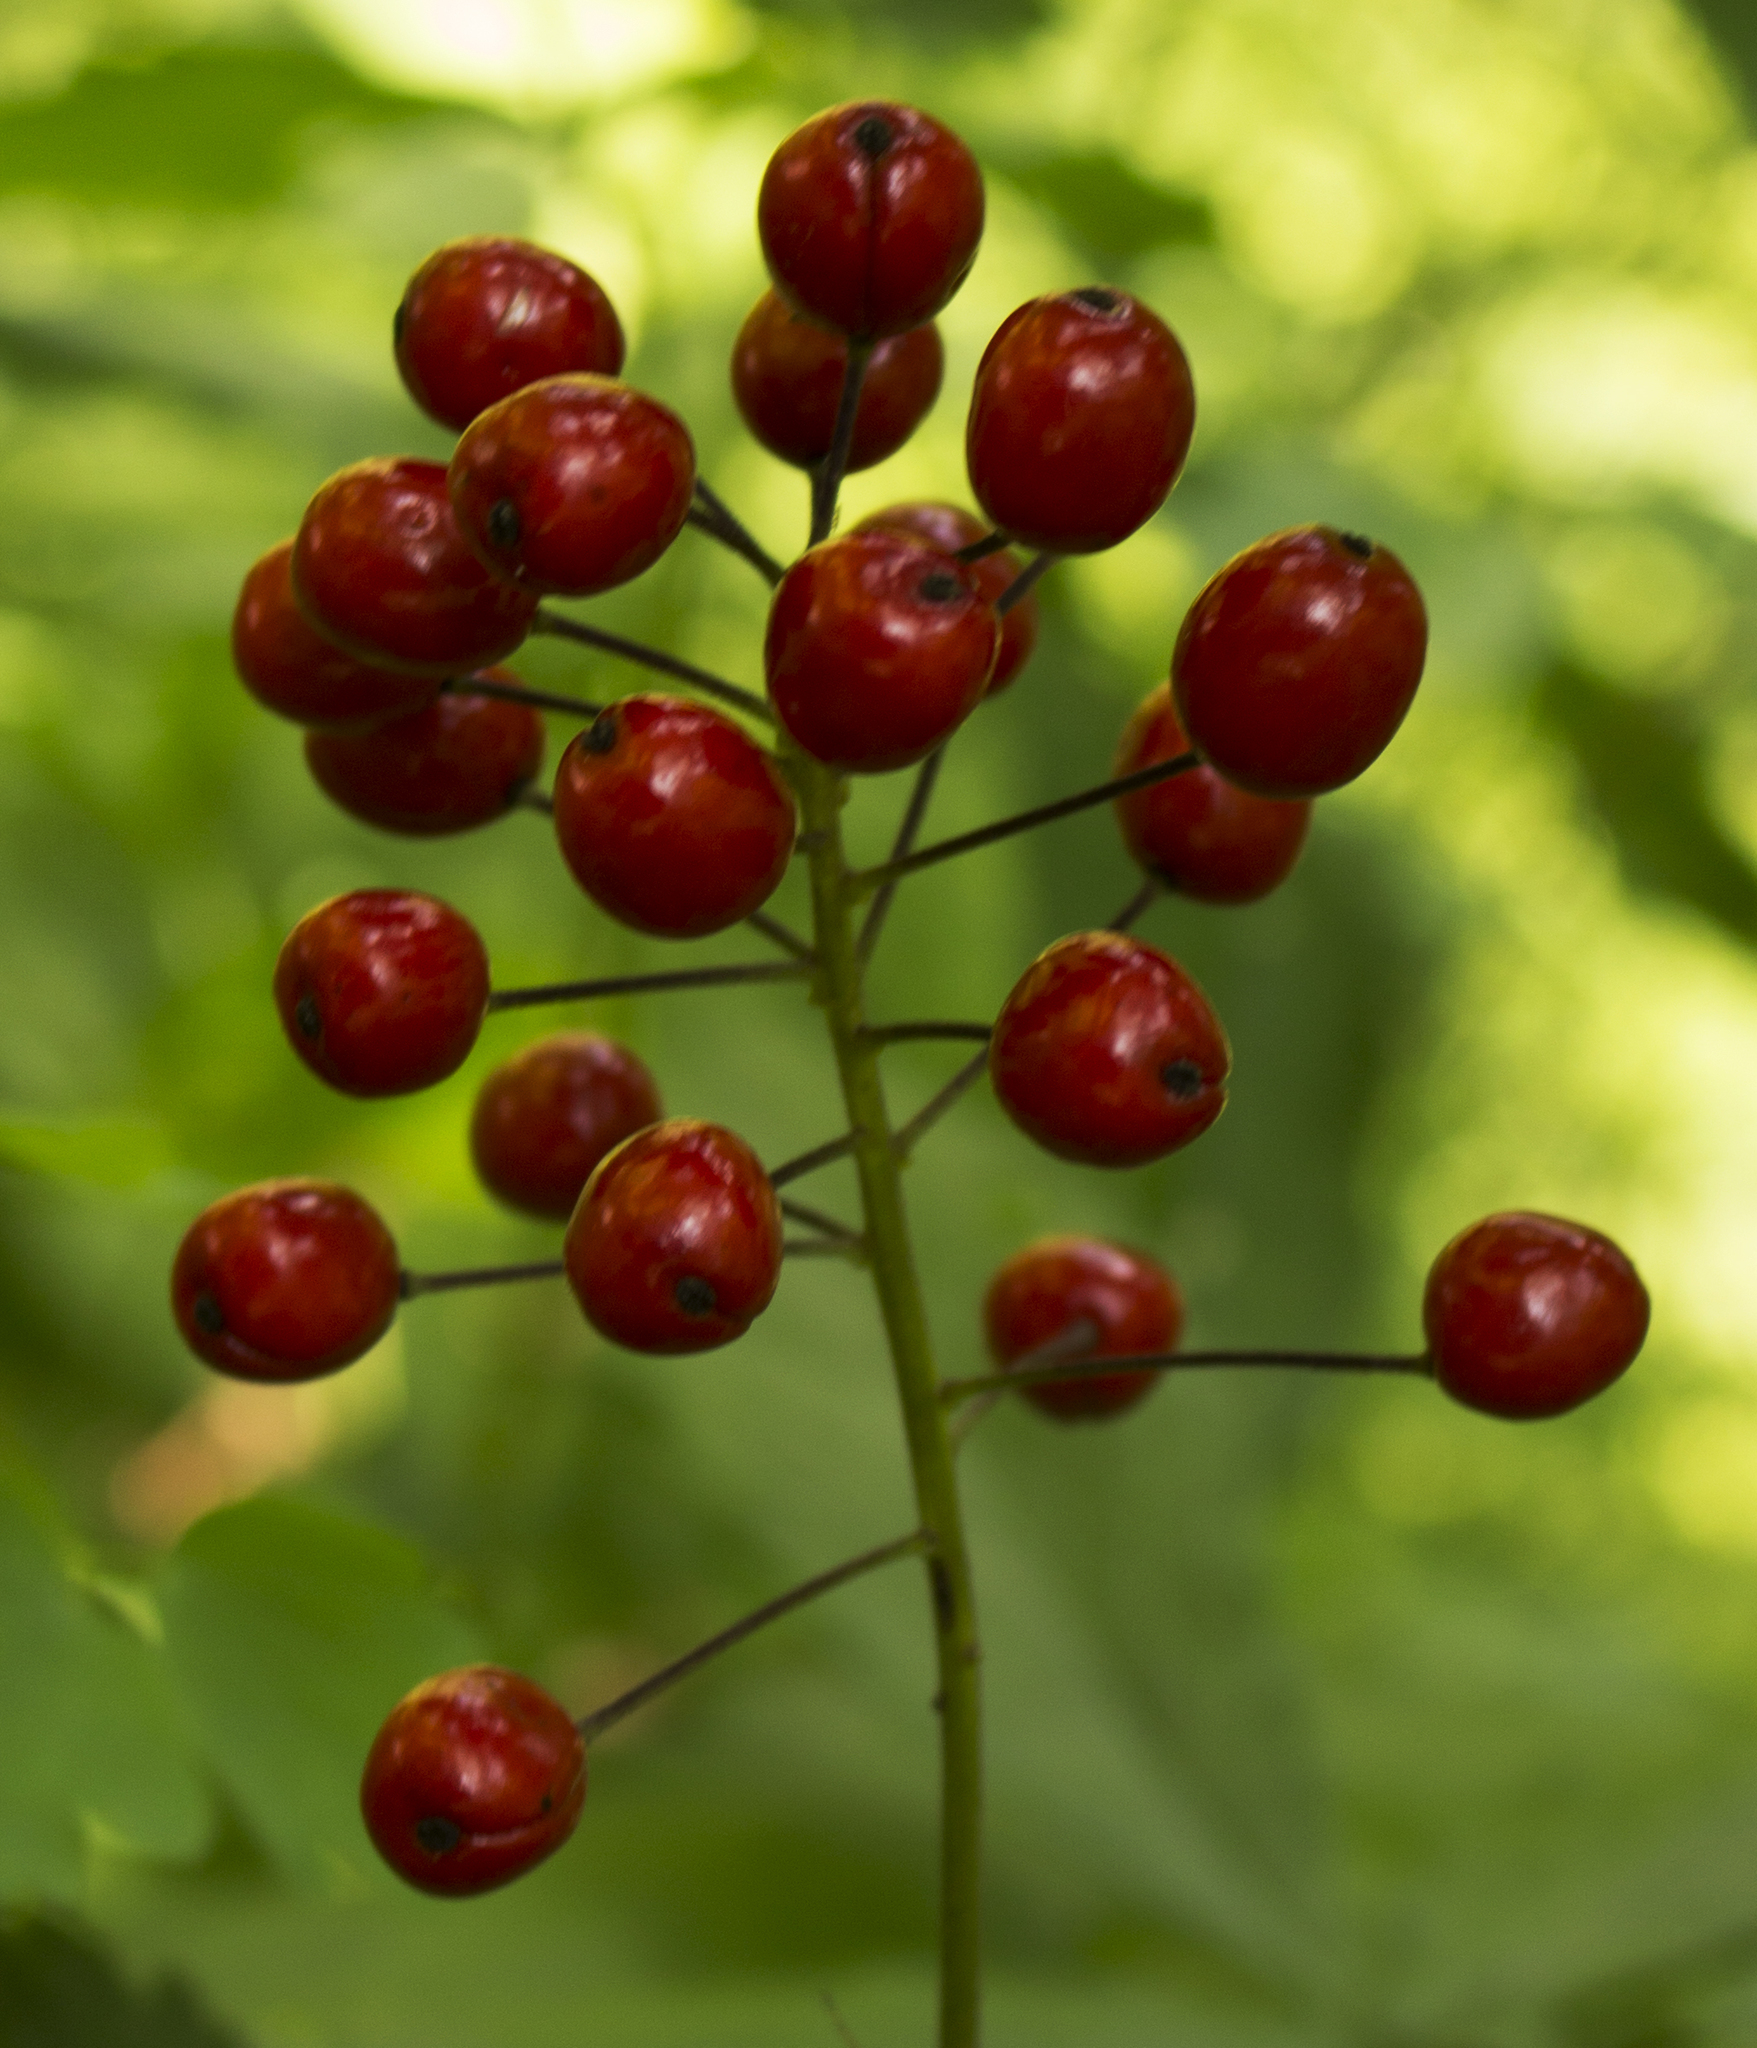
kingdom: Plantae
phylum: Tracheophyta
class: Magnoliopsida
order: Ranunculales
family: Ranunculaceae
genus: Actaea
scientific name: Actaea rubra
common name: Red baneberry
